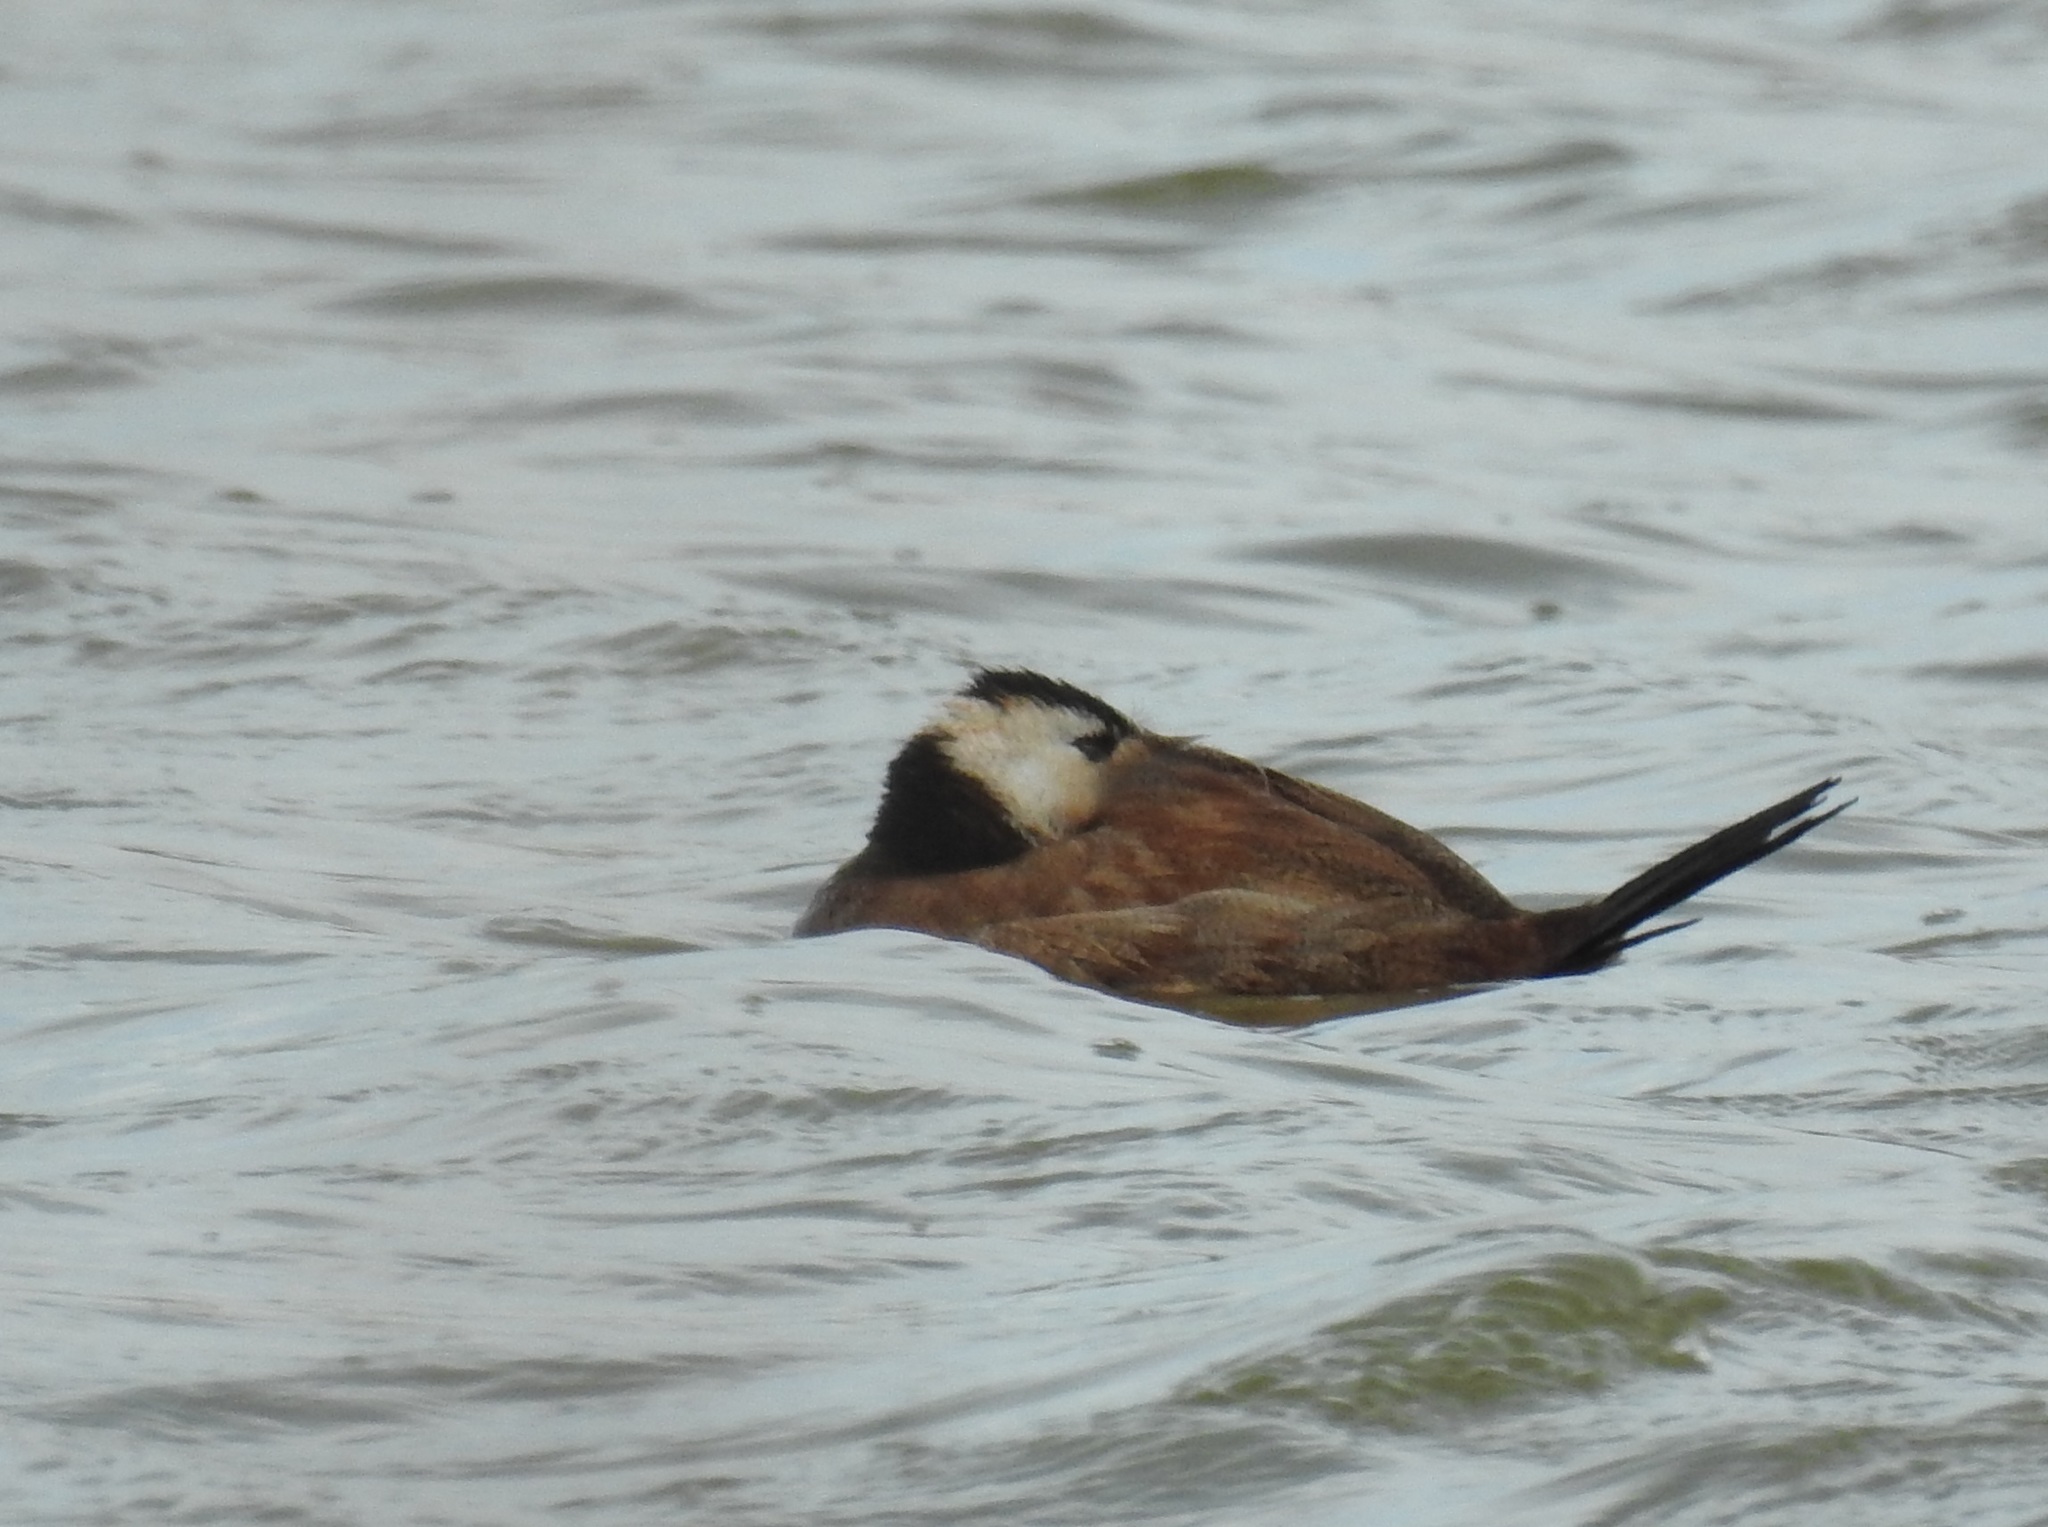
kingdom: Animalia
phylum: Chordata
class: Aves
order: Anseriformes
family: Anatidae
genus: Oxyura
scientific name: Oxyura leucocephala
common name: White-headed duck
